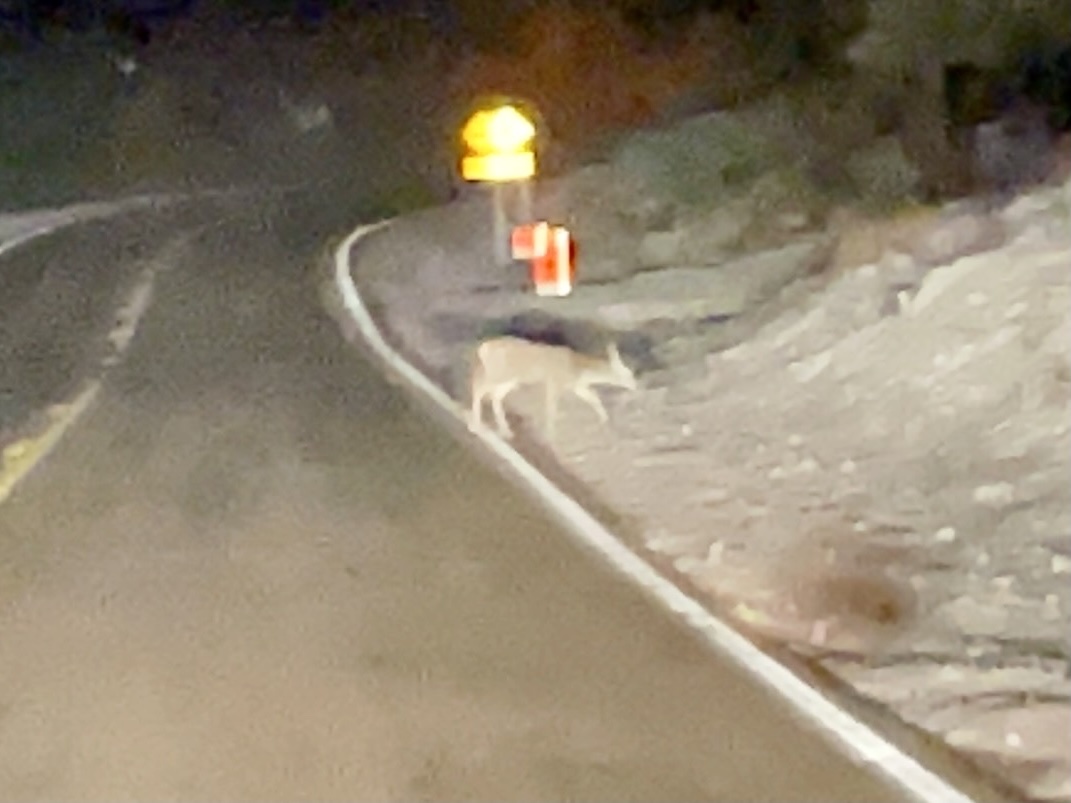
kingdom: Animalia
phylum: Chordata
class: Mammalia
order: Artiodactyla
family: Cervidae
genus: Odocoileus
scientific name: Odocoileus hemionus
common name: Mule deer
